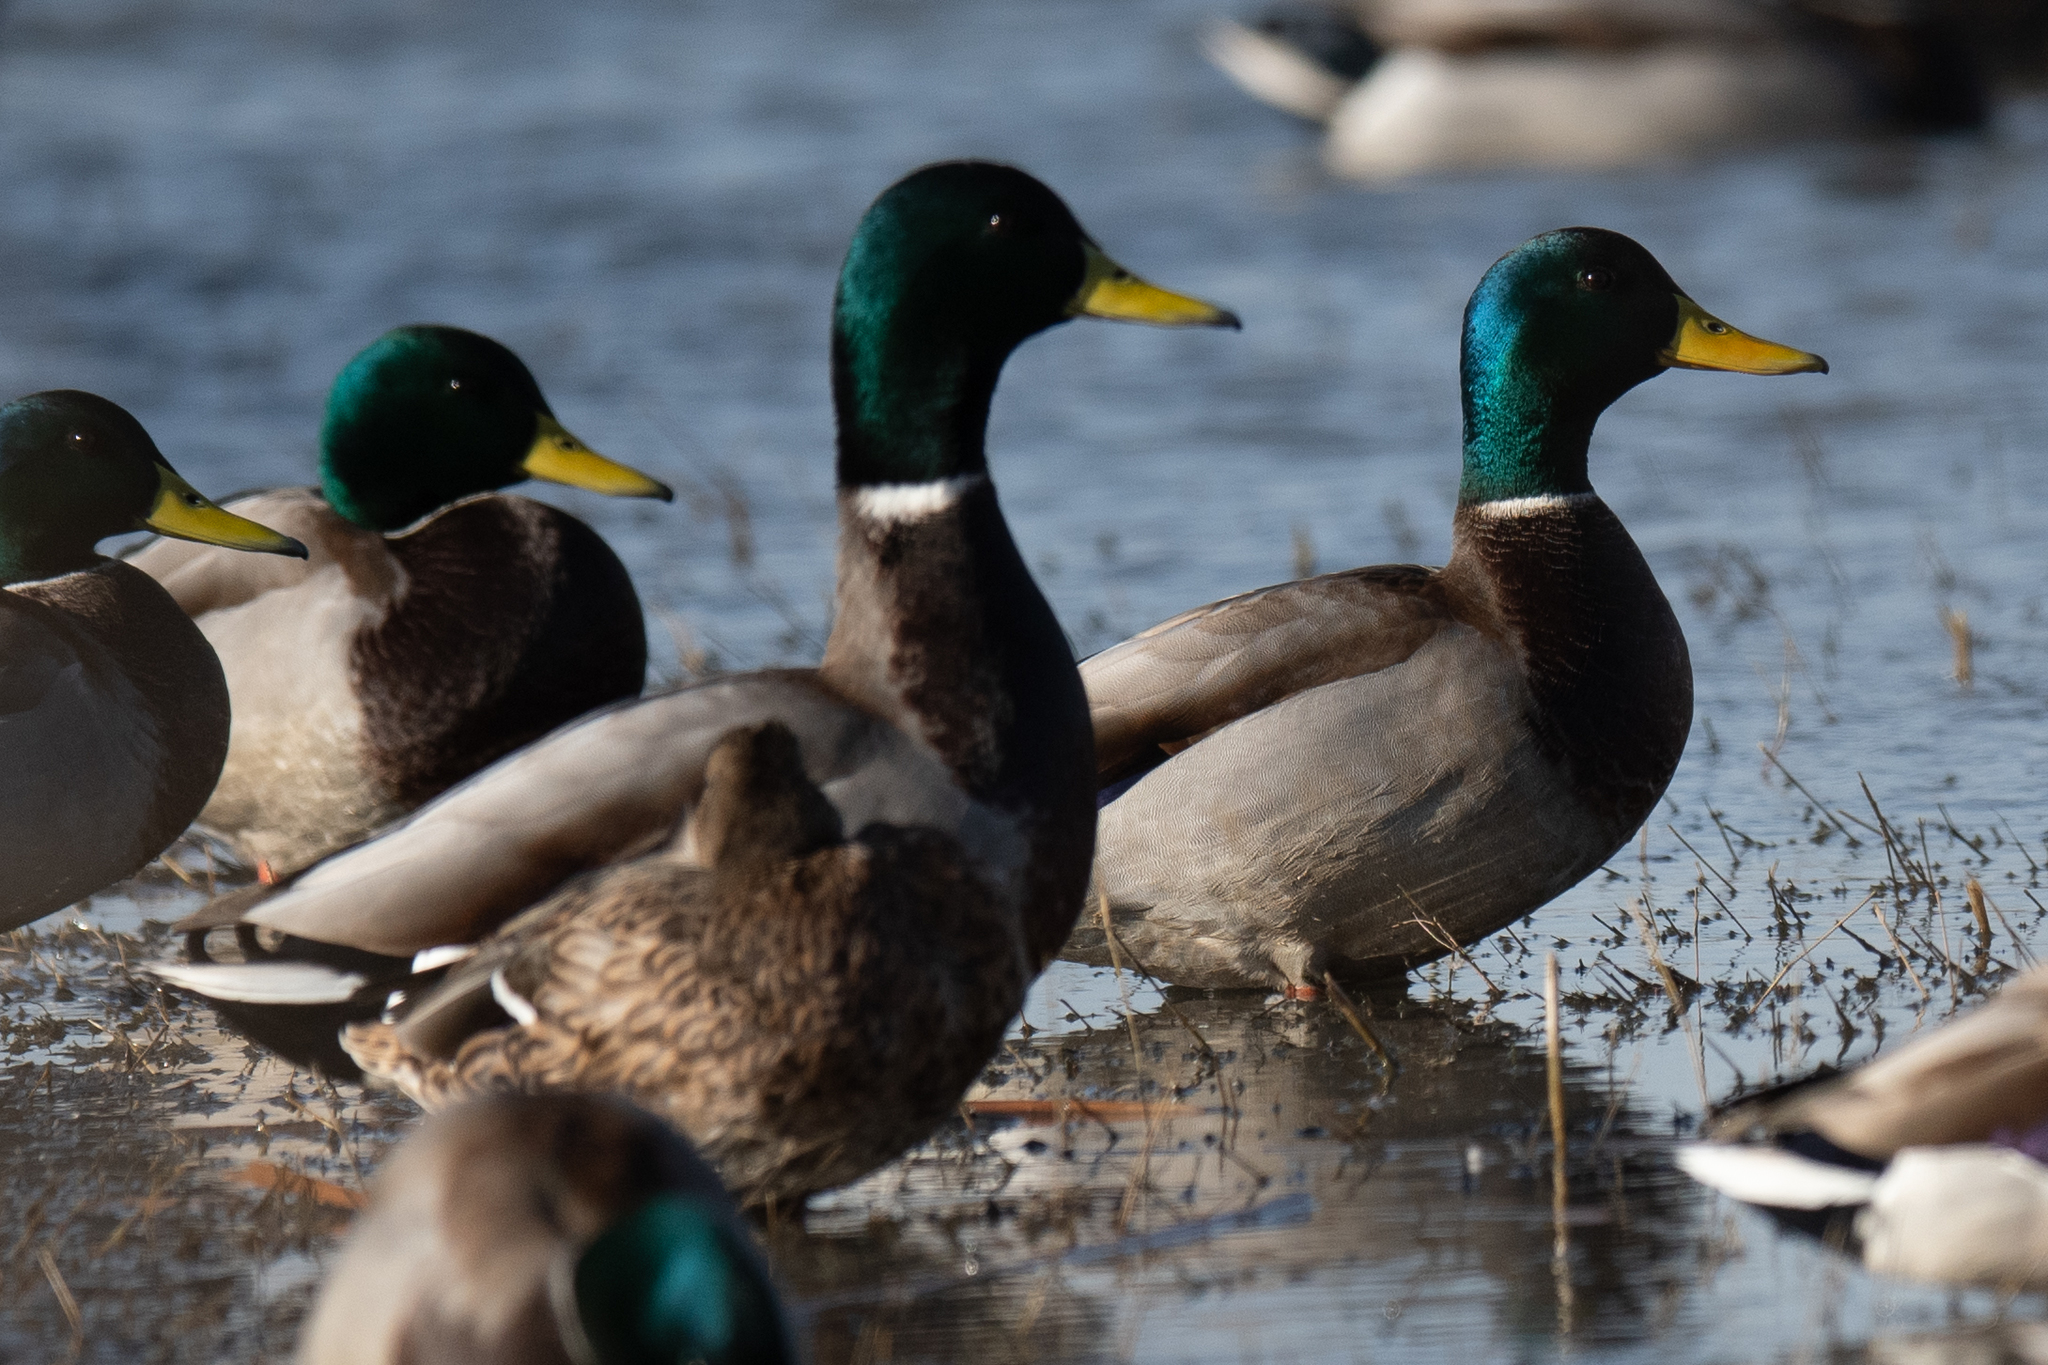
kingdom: Animalia
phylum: Chordata
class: Aves
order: Anseriformes
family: Anatidae
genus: Anas
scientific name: Anas platyrhynchos
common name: Mallard
